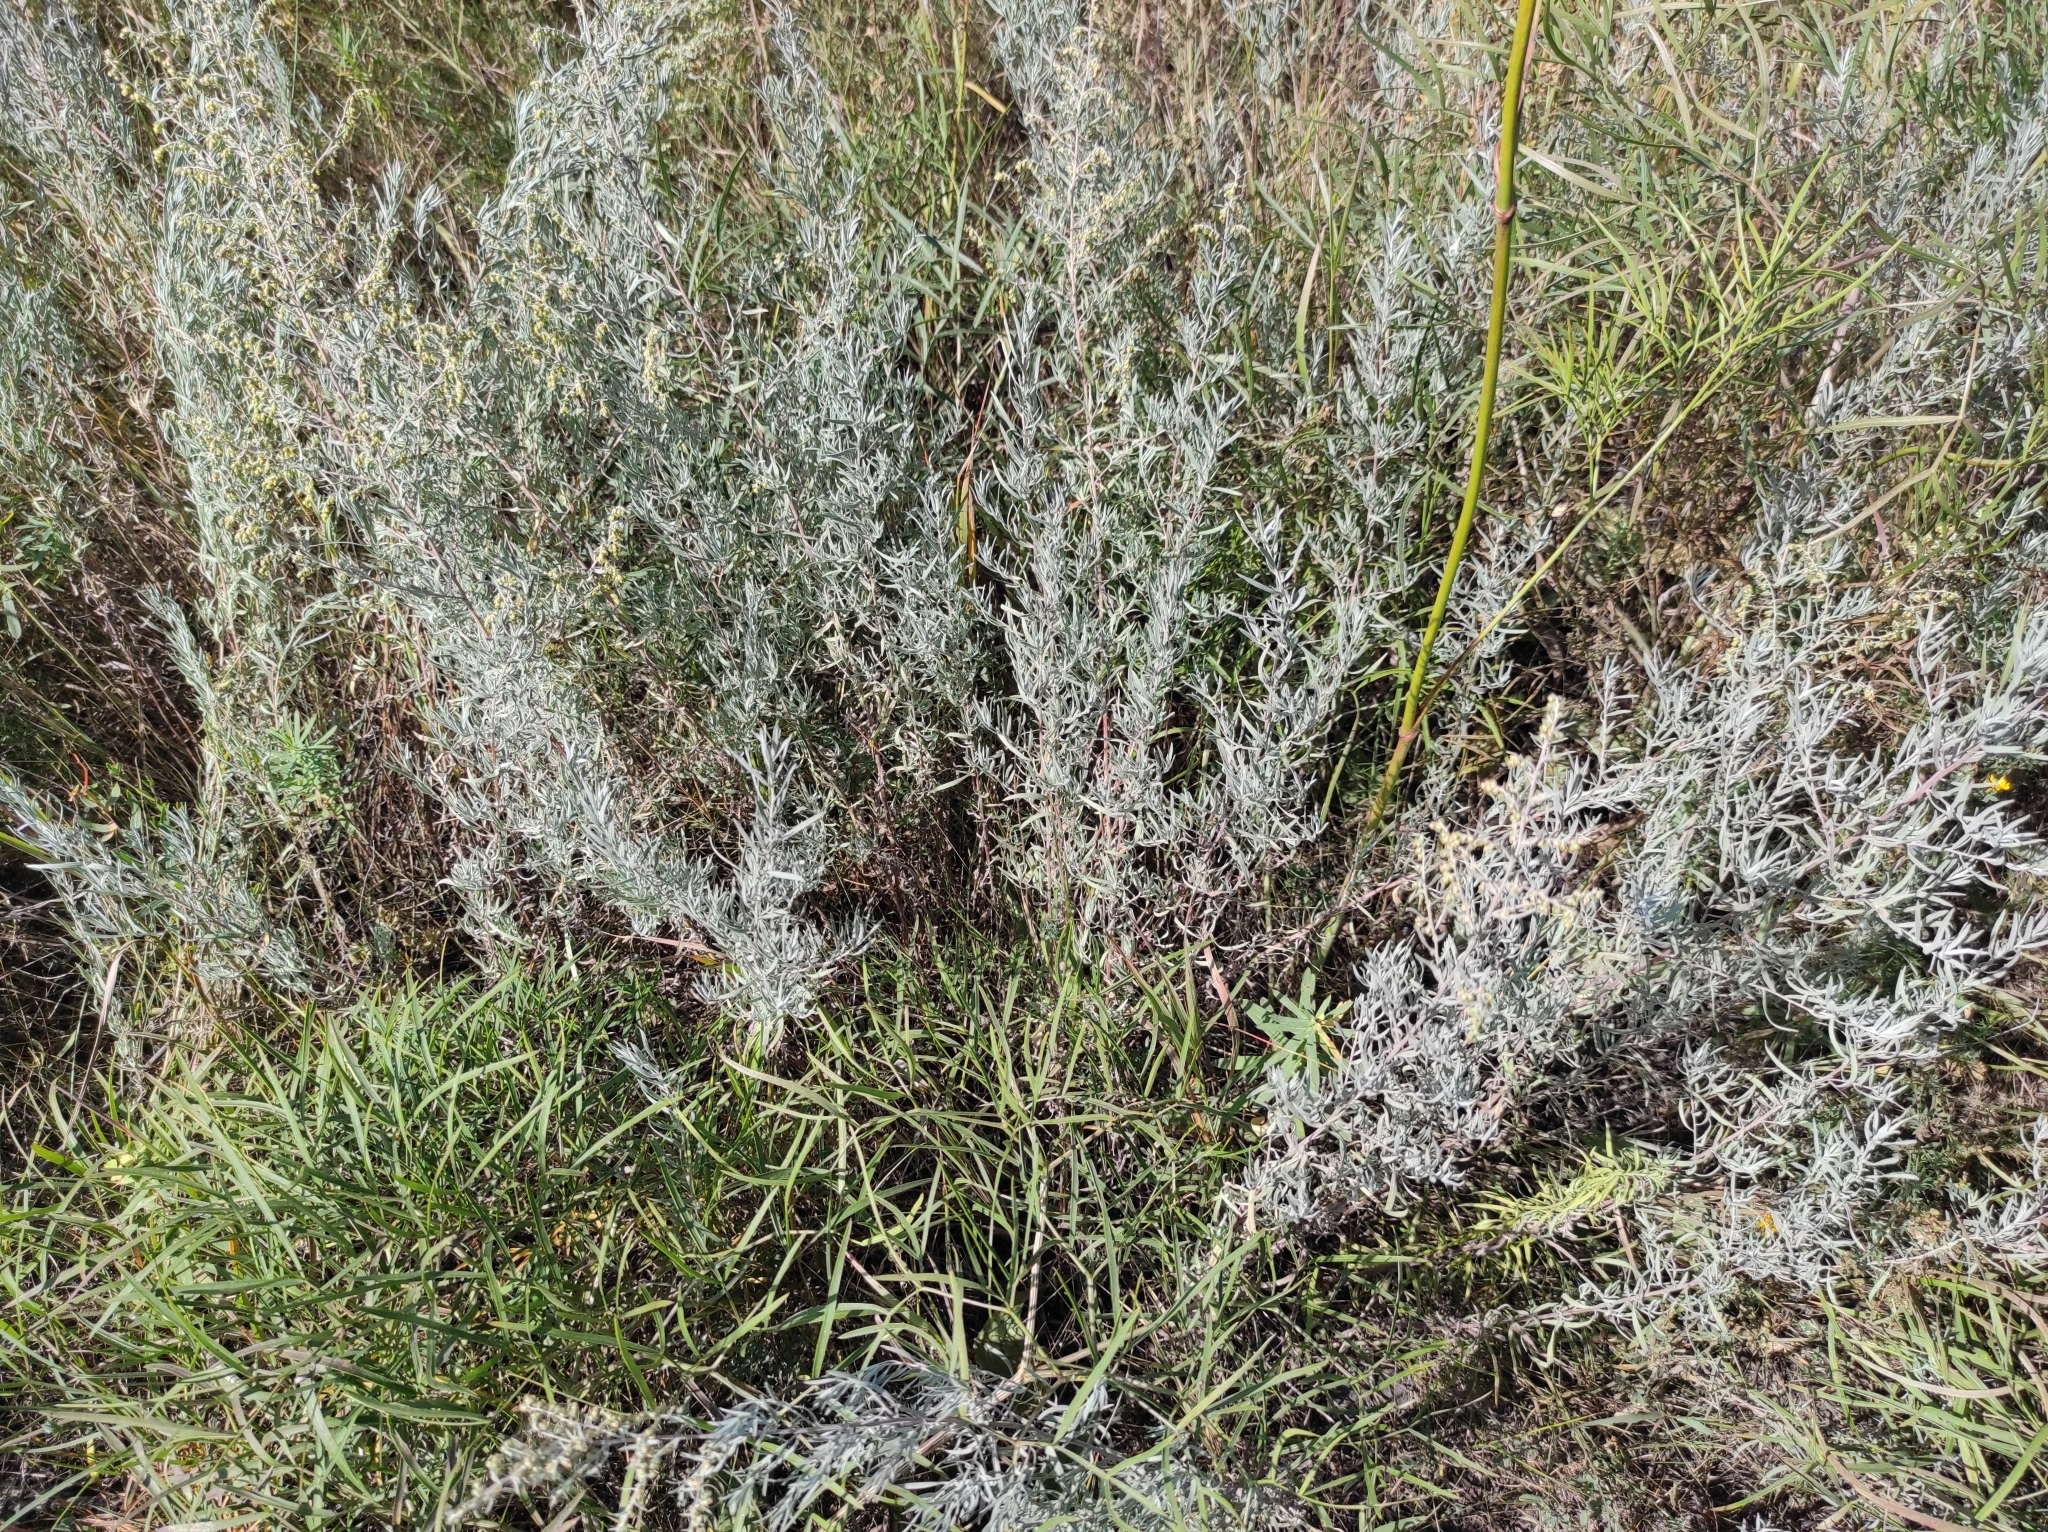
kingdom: Plantae
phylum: Tracheophyta
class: Magnoliopsida
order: Asterales
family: Asteraceae
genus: Artemisia
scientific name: Artemisia glauca
